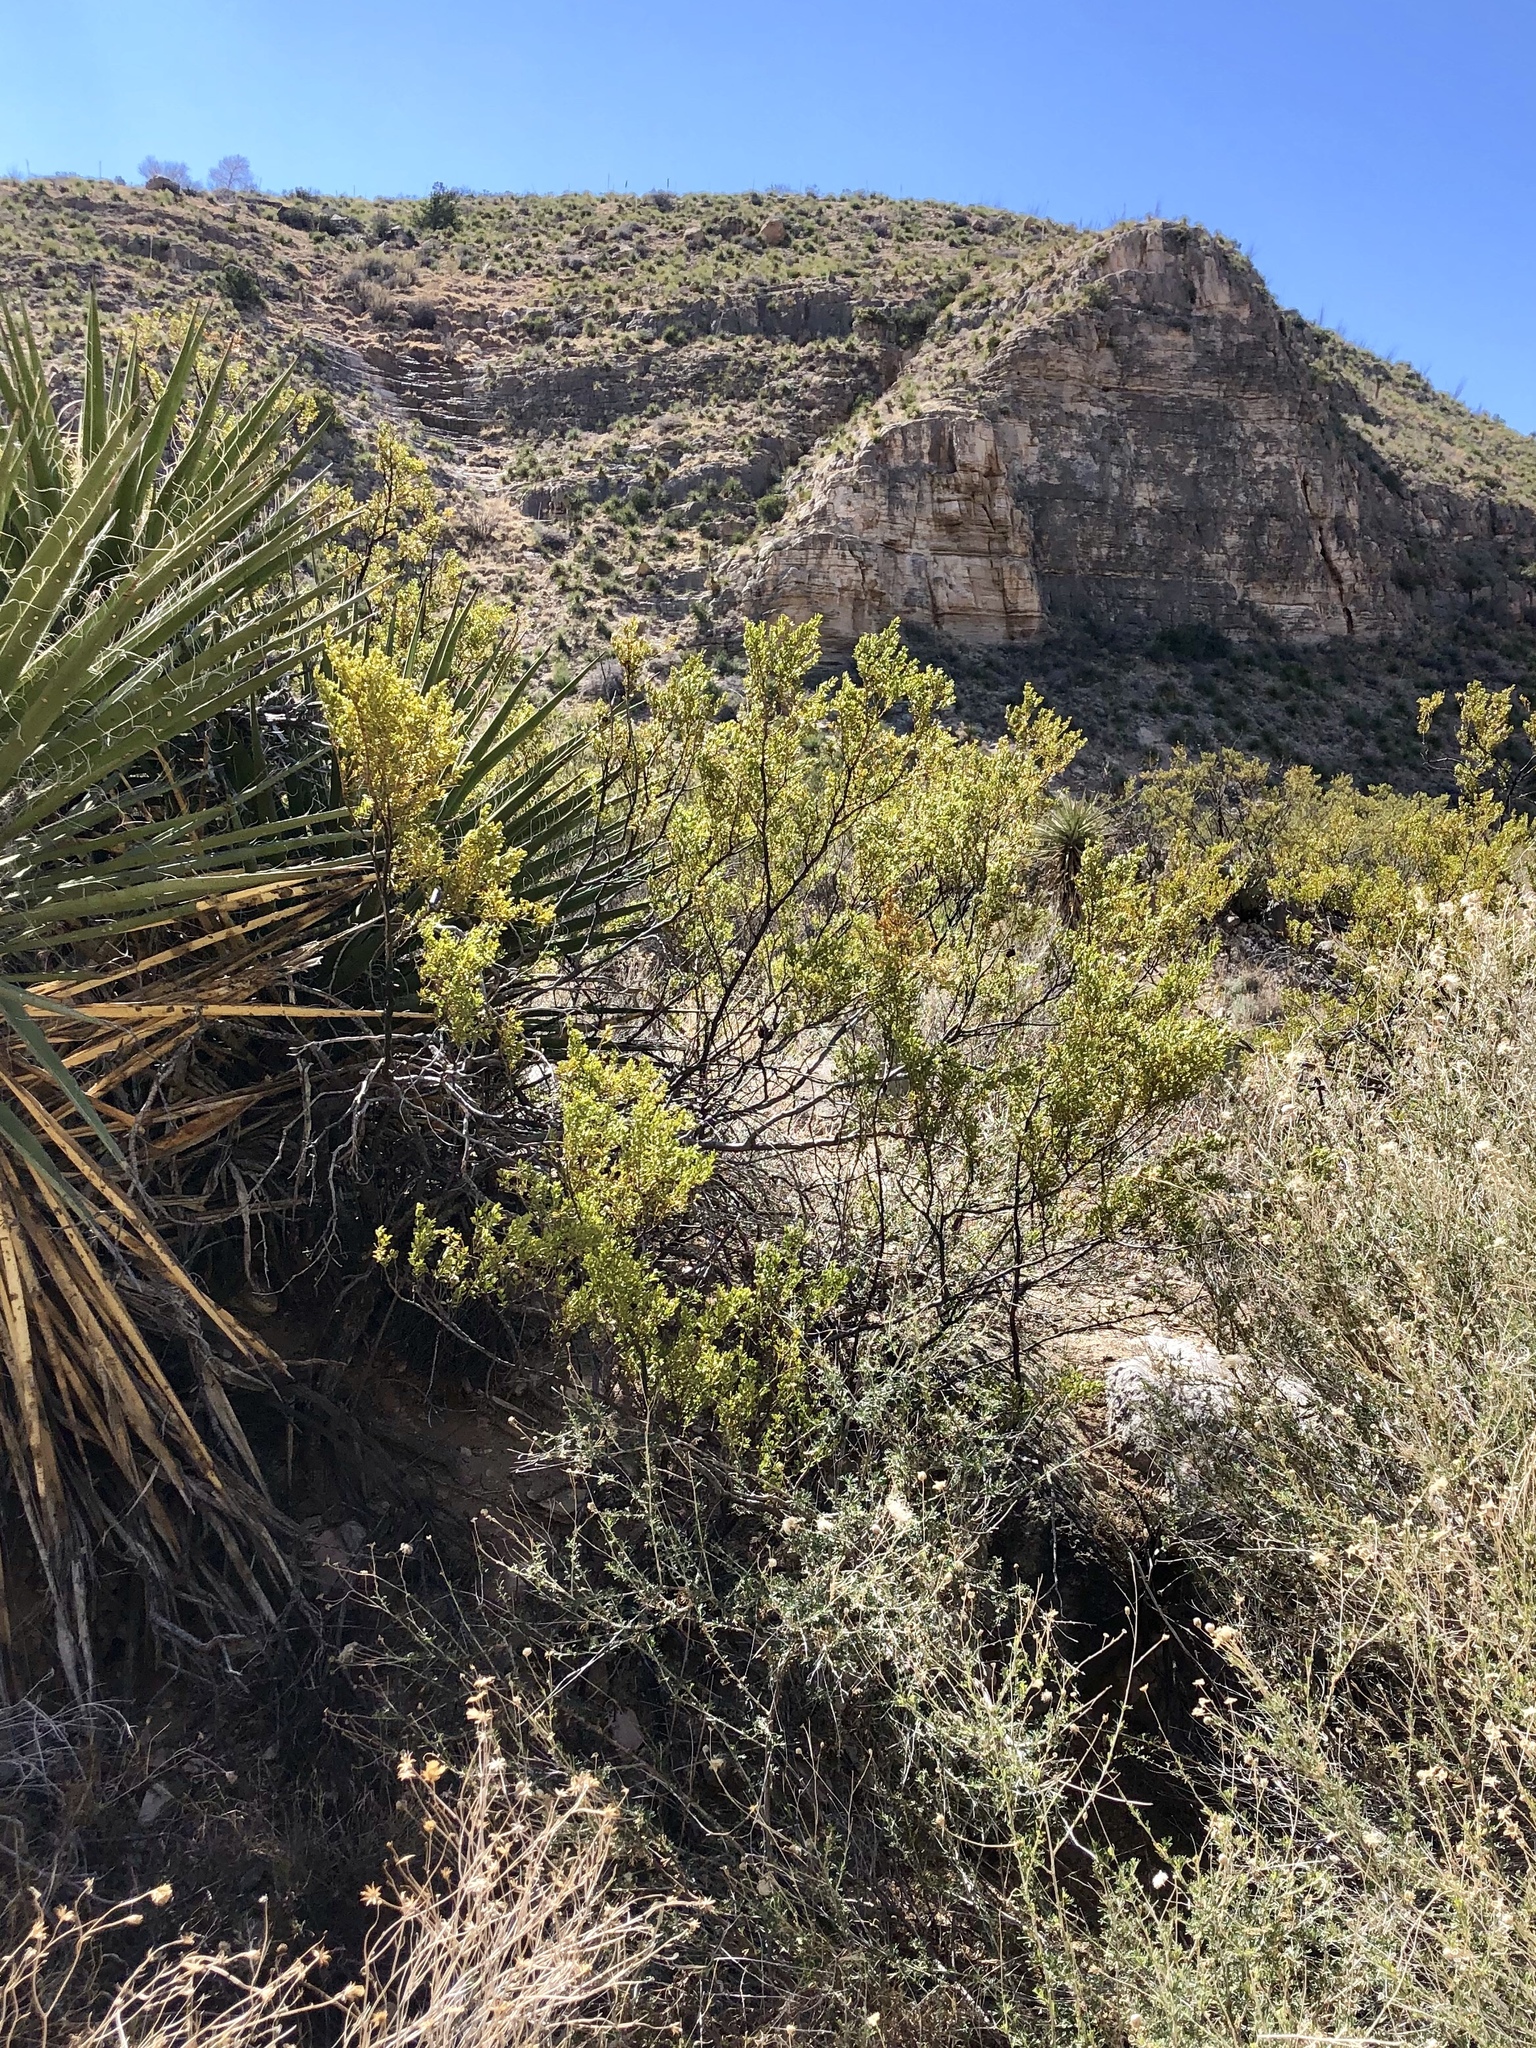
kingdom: Plantae
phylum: Tracheophyta
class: Magnoliopsida
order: Zygophyllales
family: Zygophyllaceae
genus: Larrea
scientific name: Larrea tridentata
